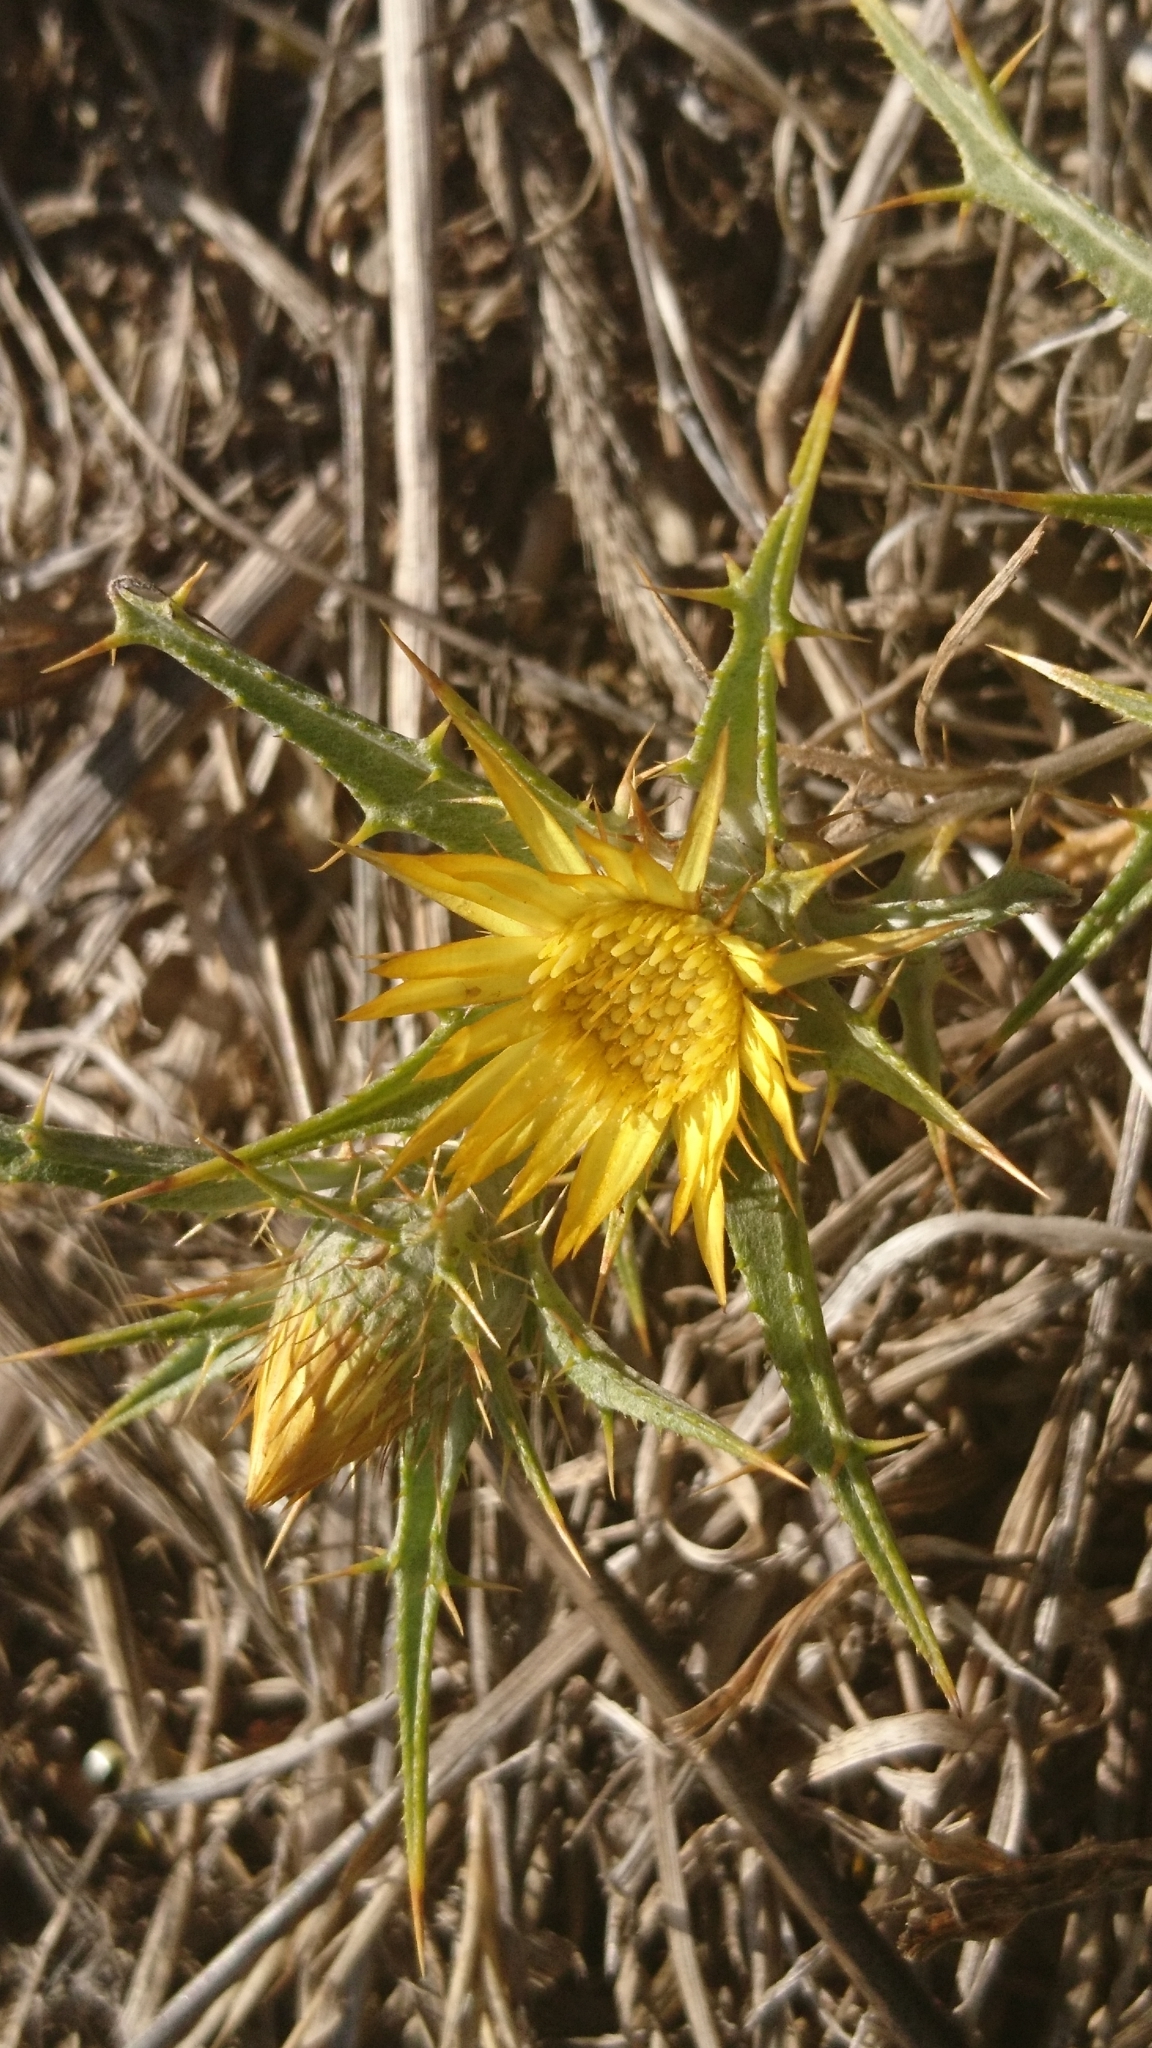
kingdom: Plantae
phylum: Tracheophyta
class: Magnoliopsida
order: Asterales
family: Asteraceae
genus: Carlina
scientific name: Carlina racemosa
